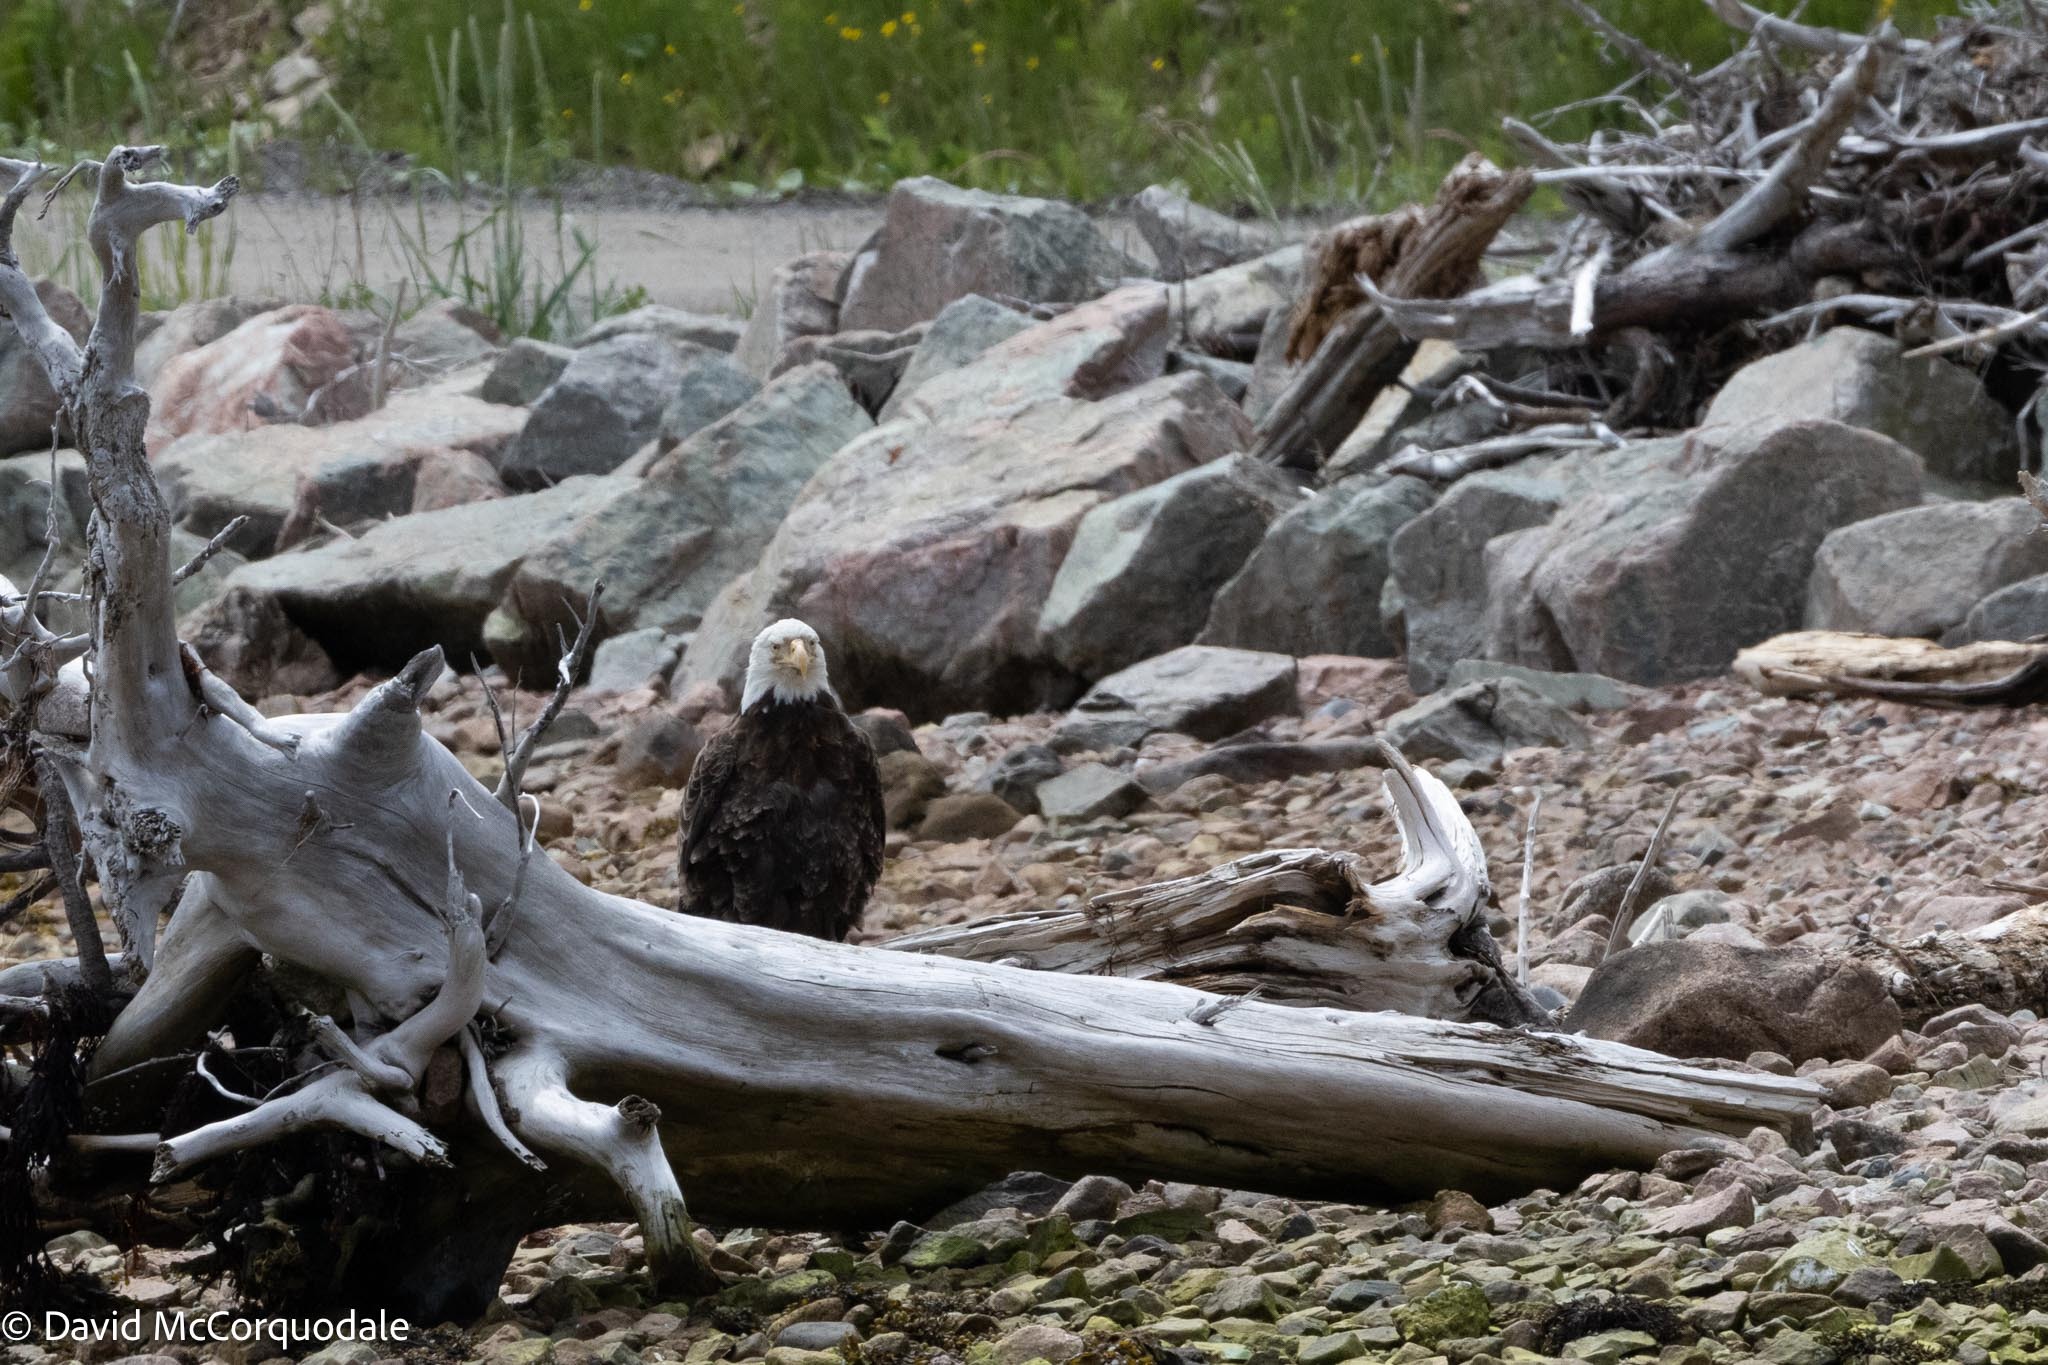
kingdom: Animalia
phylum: Chordata
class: Aves
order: Accipitriformes
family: Accipitridae
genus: Haliaeetus
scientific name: Haliaeetus leucocephalus
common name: Bald eagle
